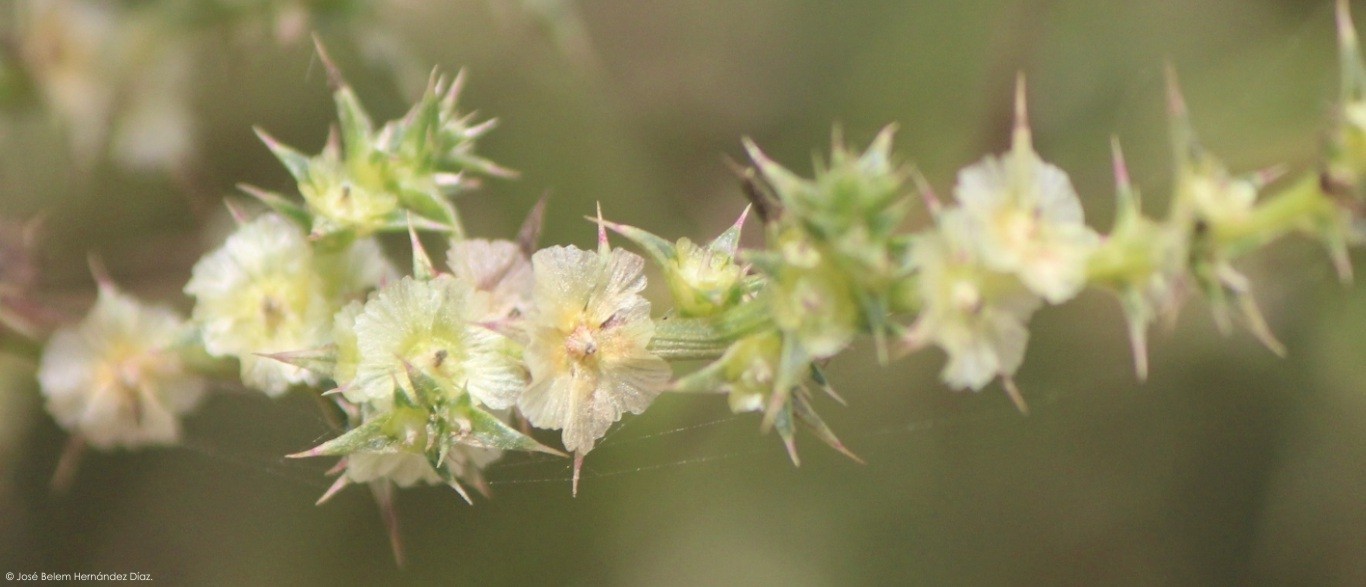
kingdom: Plantae
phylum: Tracheophyta
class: Magnoliopsida
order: Caryophyllales
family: Amaranthaceae
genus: Salsola
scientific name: Salsola tragus
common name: Prickly russian thistle
